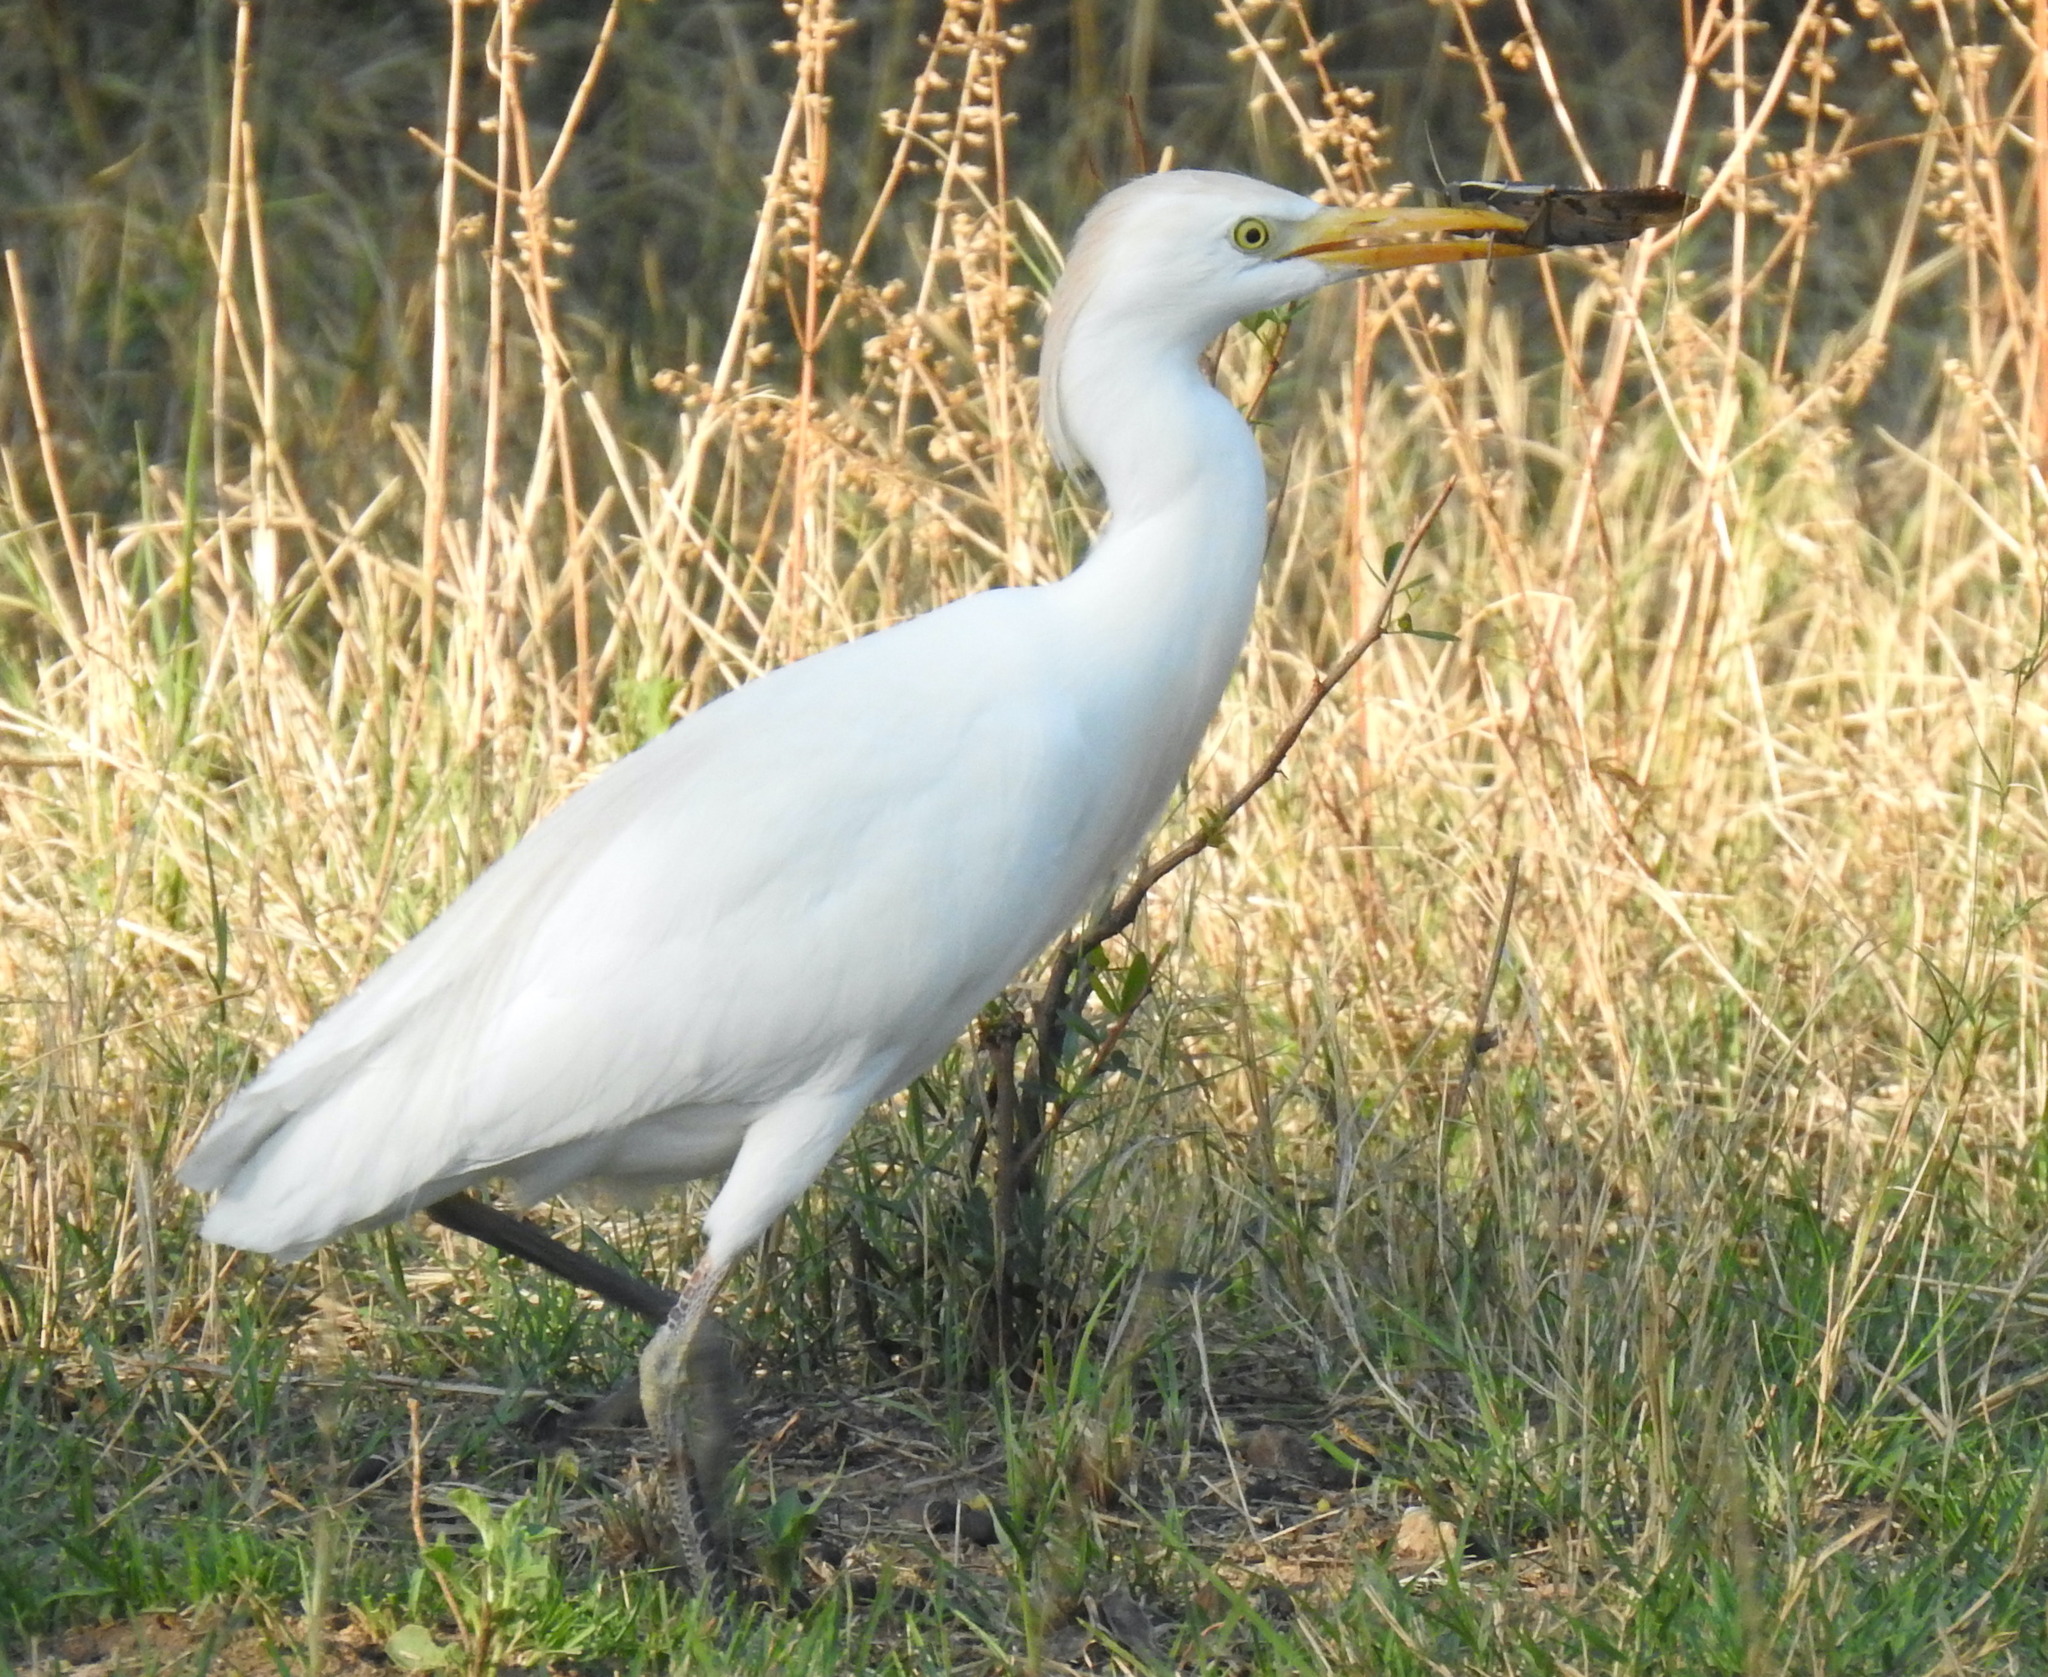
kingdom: Animalia
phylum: Chordata
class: Aves
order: Pelecaniformes
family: Ardeidae
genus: Bubulcus
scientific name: Bubulcus ibis
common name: Cattle egret
